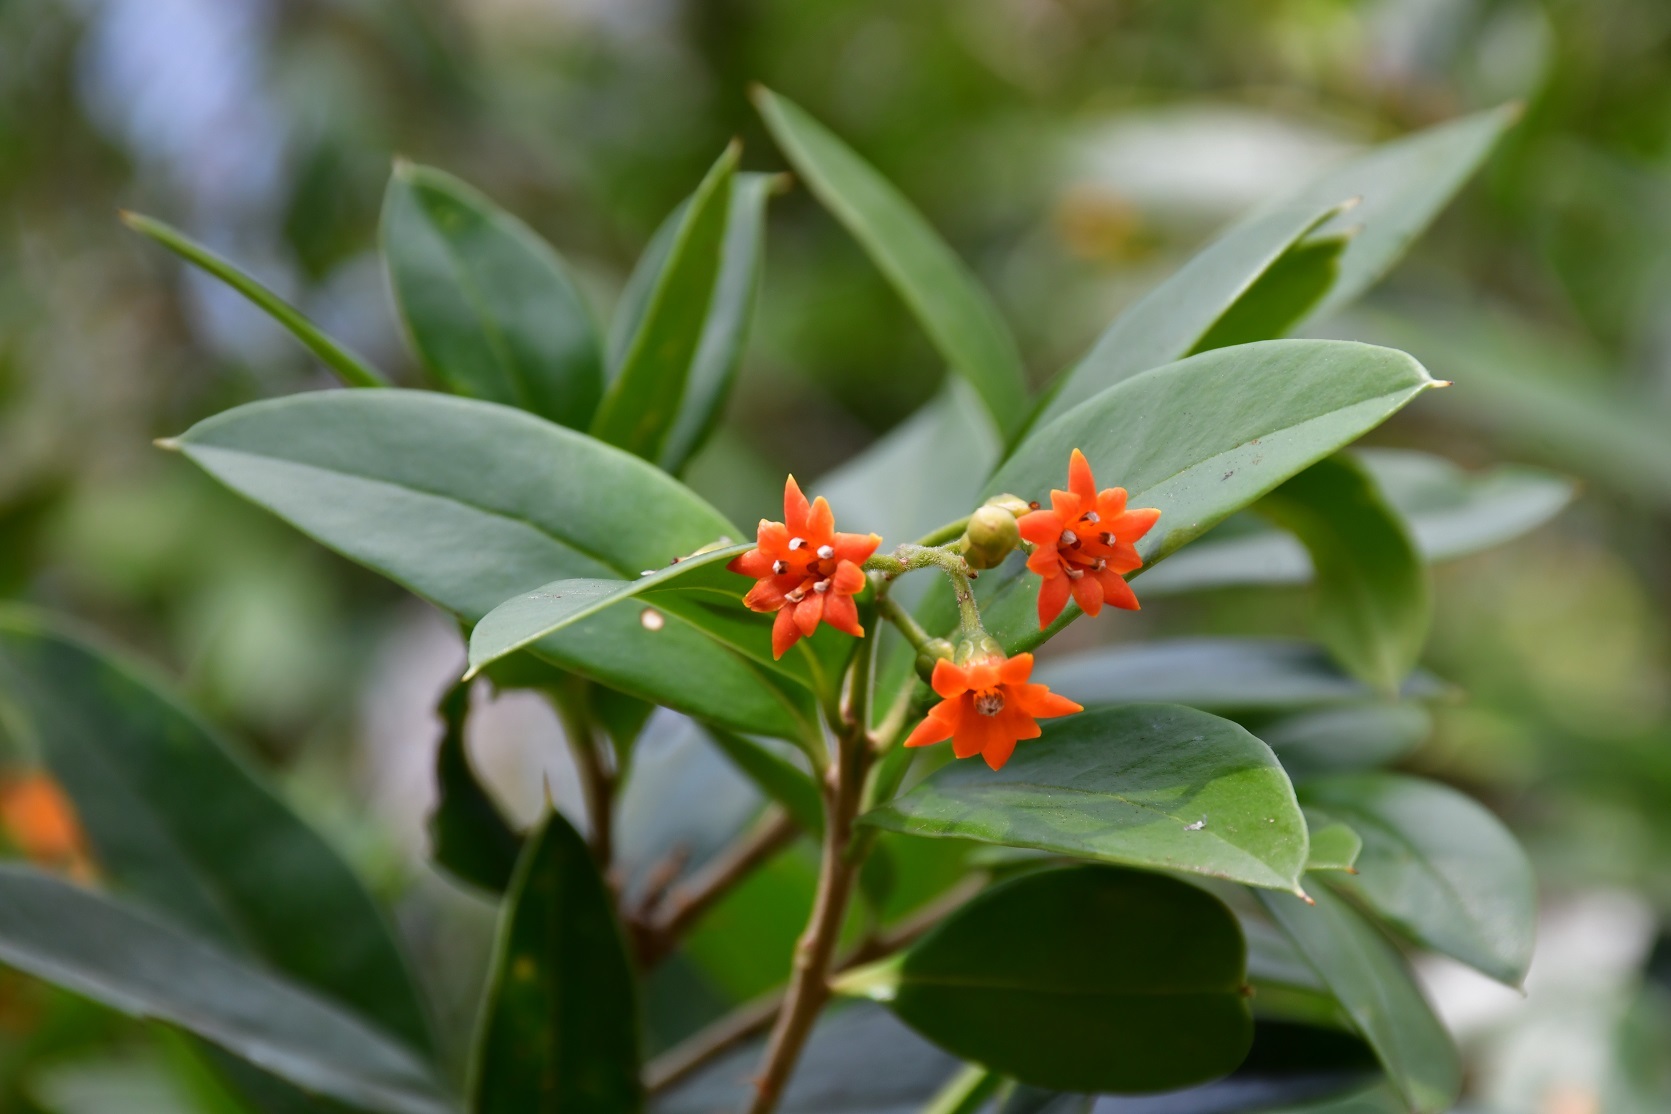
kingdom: Plantae
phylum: Tracheophyta
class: Magnoliopsida
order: Ericales
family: Primulaceae
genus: Bonellia
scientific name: Bonellia macrocarpa
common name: Primrose
